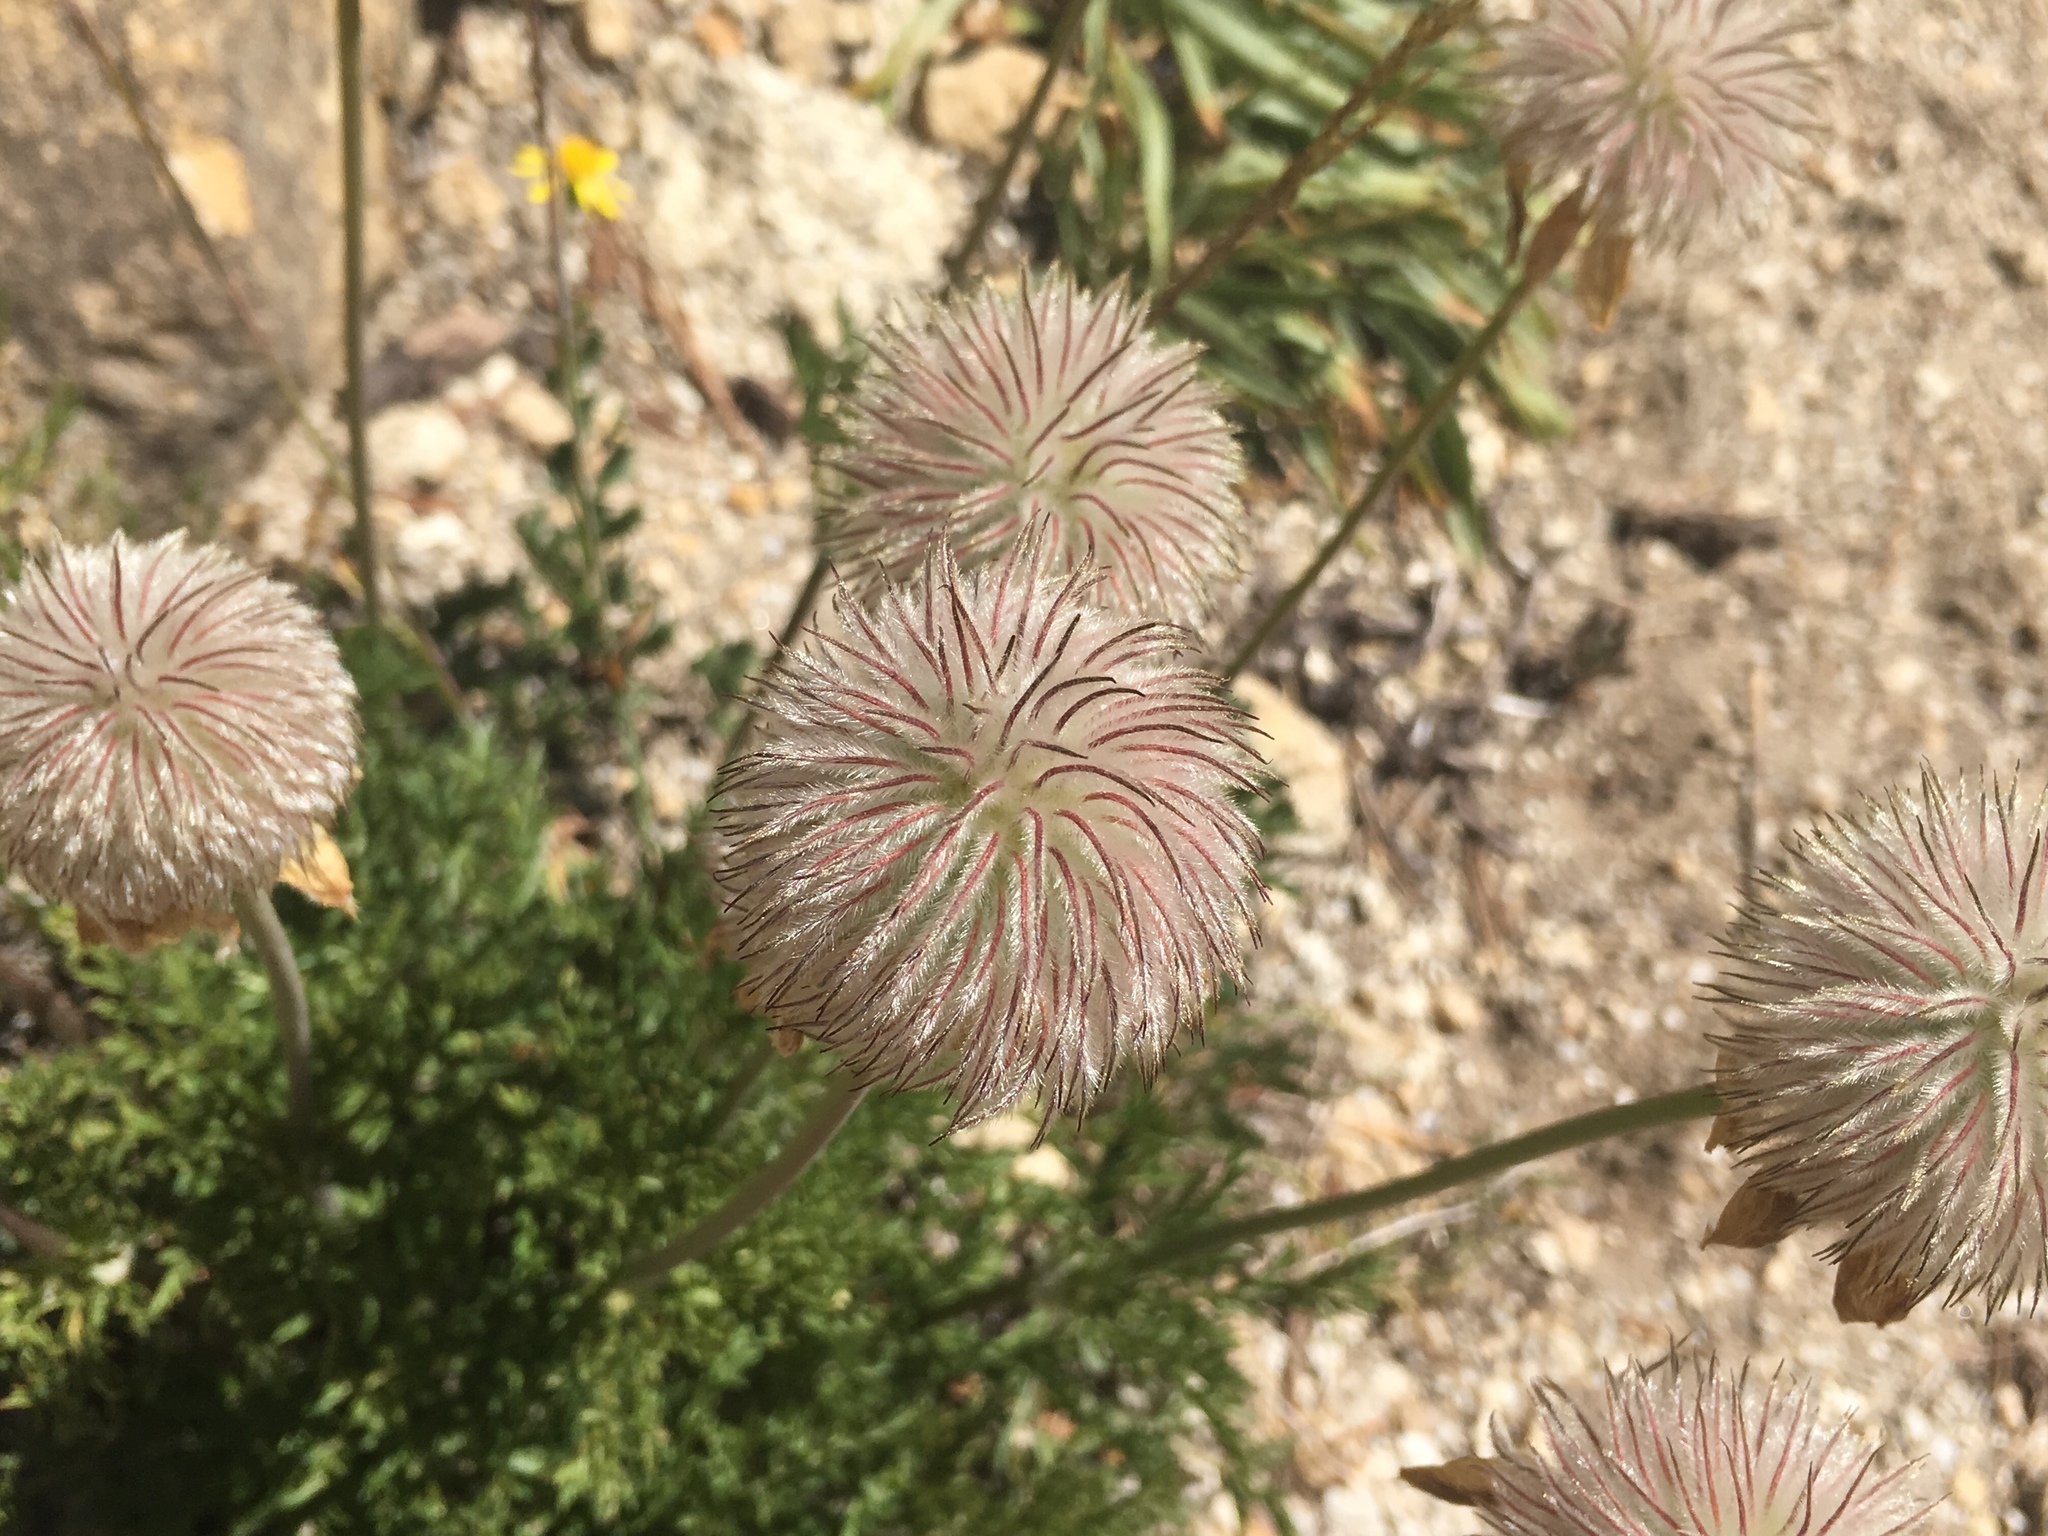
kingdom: Plantae
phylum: Tracheophyta
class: Magnoliopsida
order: Ranunculales
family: Ranunculaceae
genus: Pulsatilla
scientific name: Pulsatilla occidentalis
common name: Mountain pasqueflower
